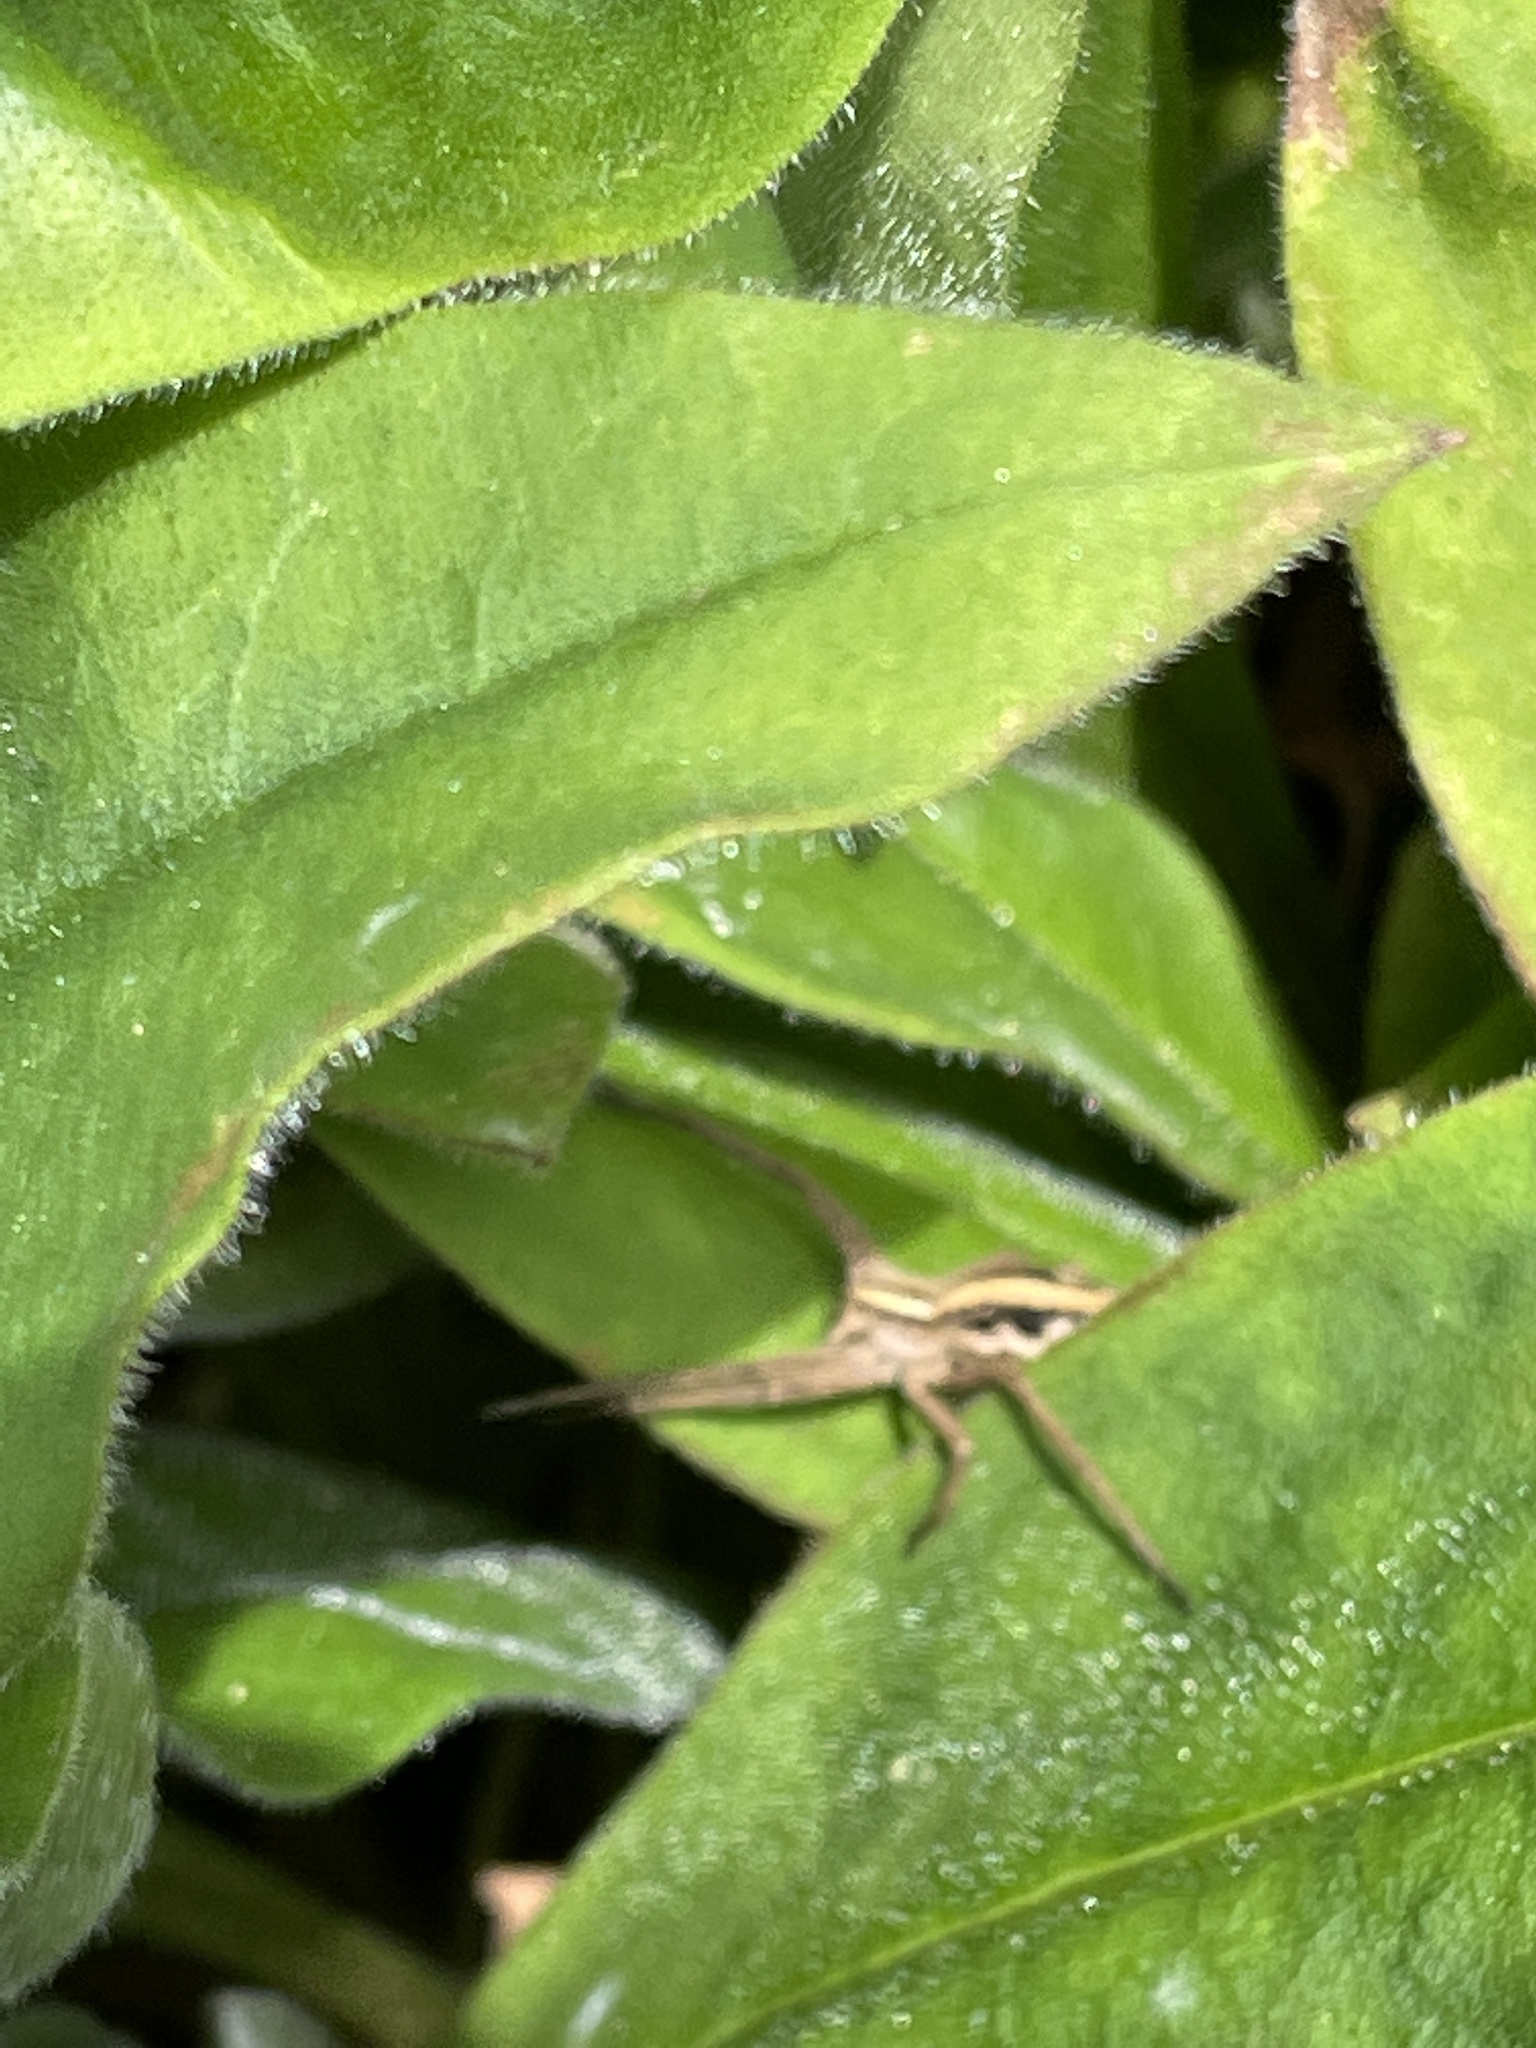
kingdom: Animalia
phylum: Arthropoda
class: Arachnida
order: Araneae
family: Pisauridae
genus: Pisaura
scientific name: Pisaura mirabilis
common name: Tent spider
